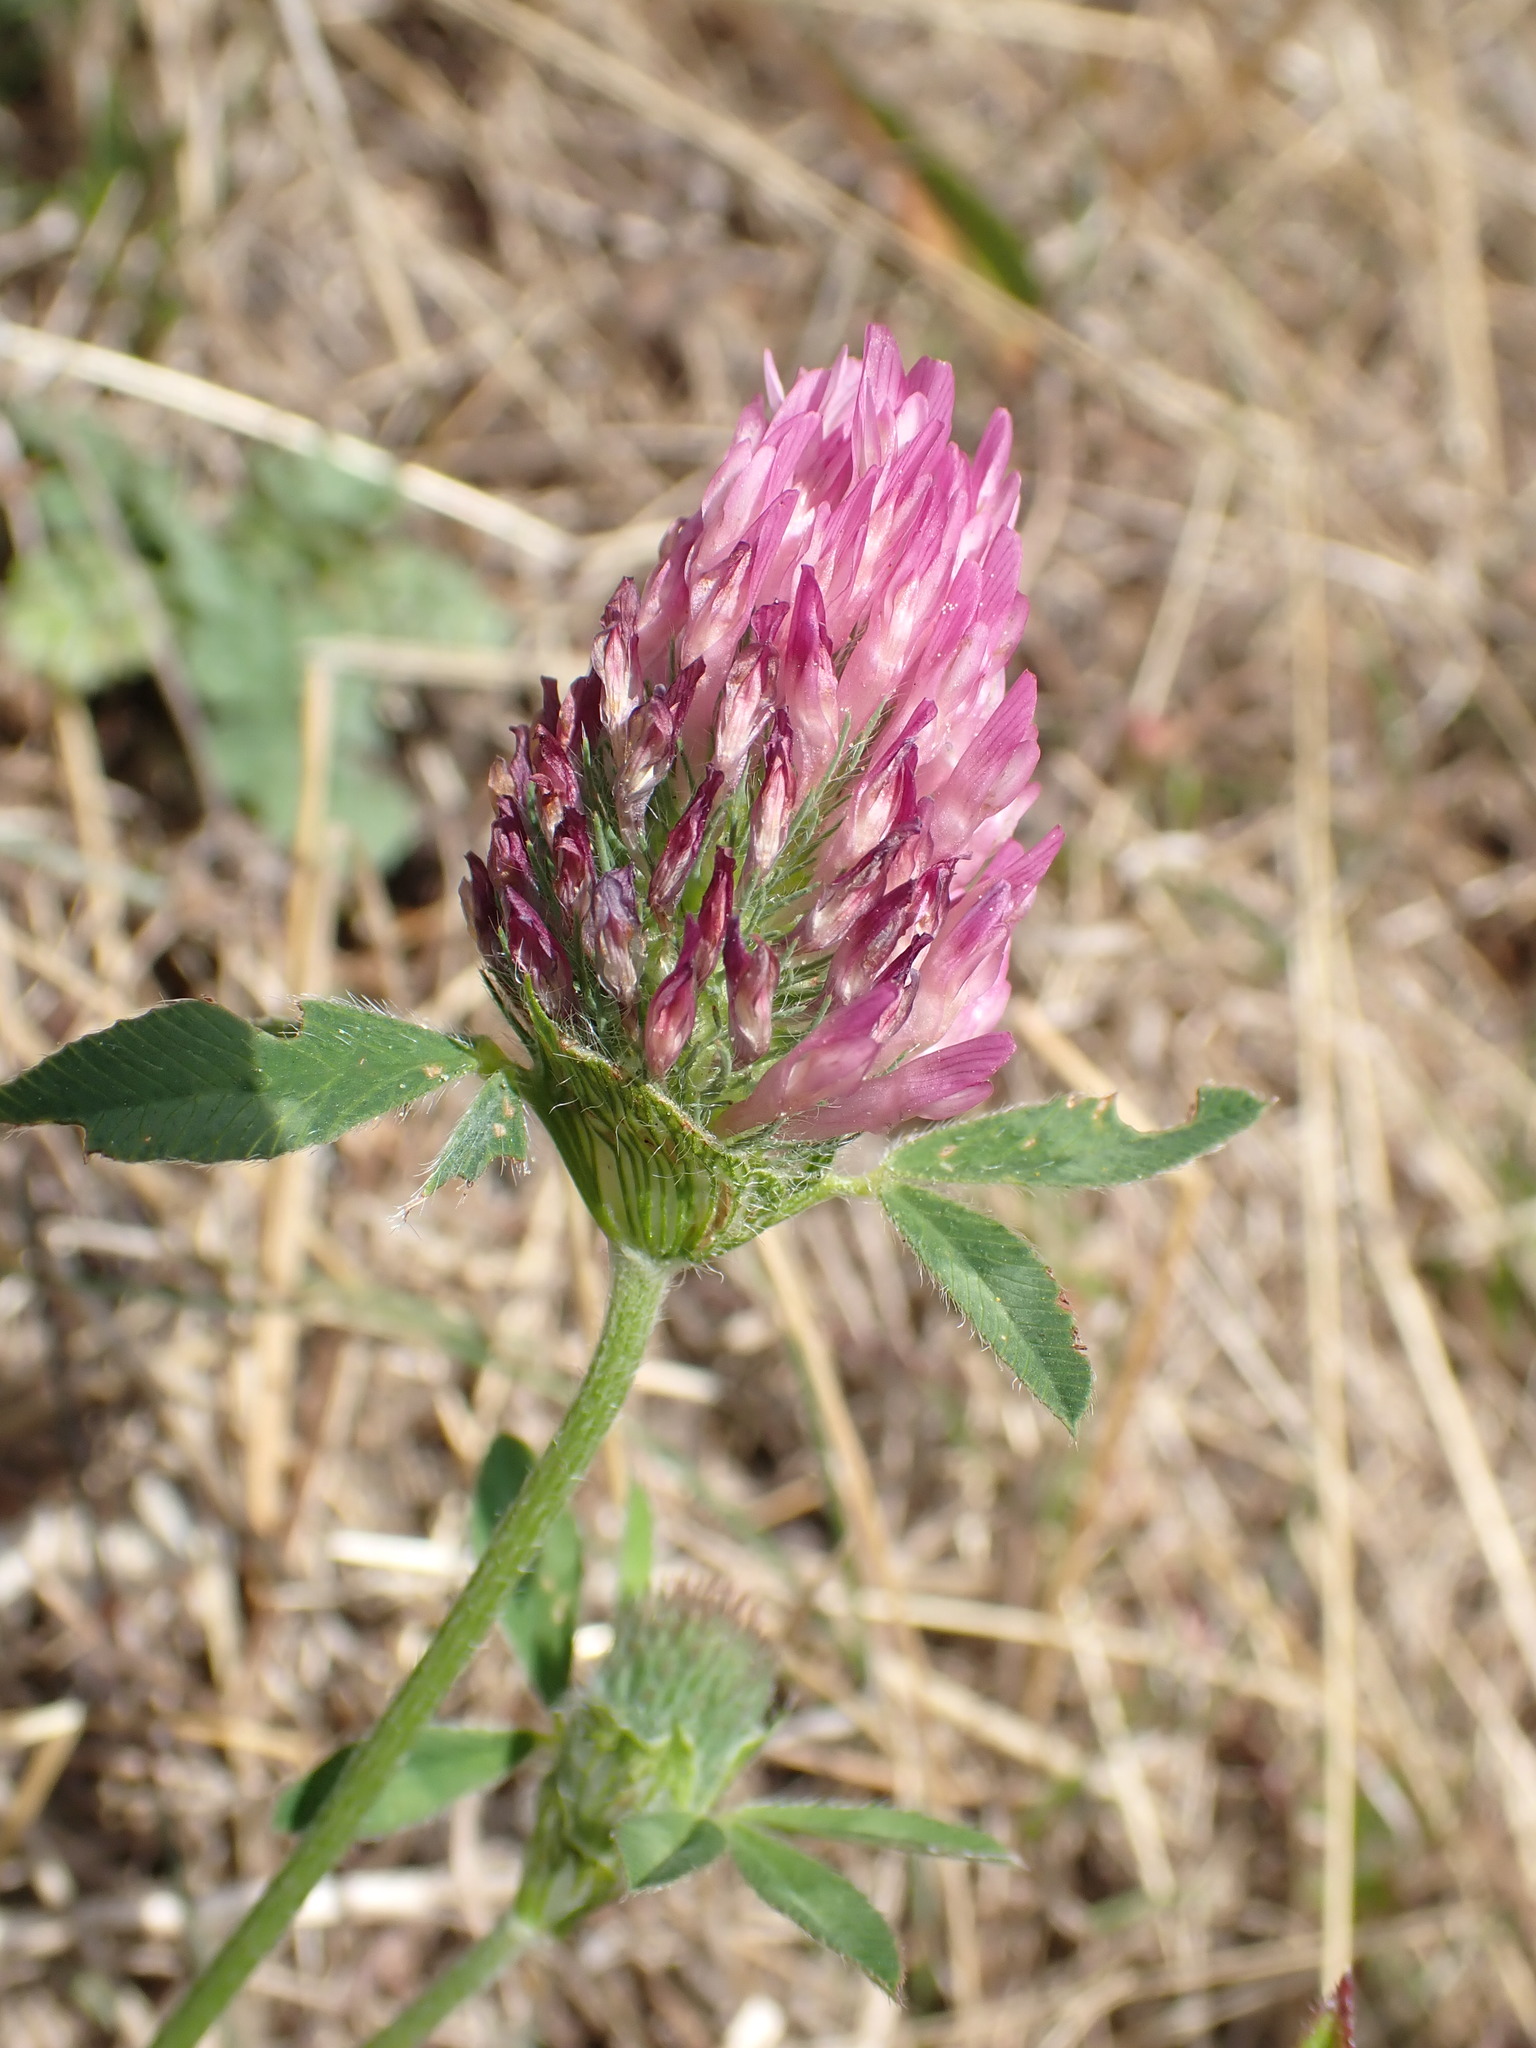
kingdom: Plantae
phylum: Tracheophyta
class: Magnoliopsida
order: Fabales
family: Fabaceae
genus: Trifolium
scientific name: Trifolium pratense
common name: Red clover
